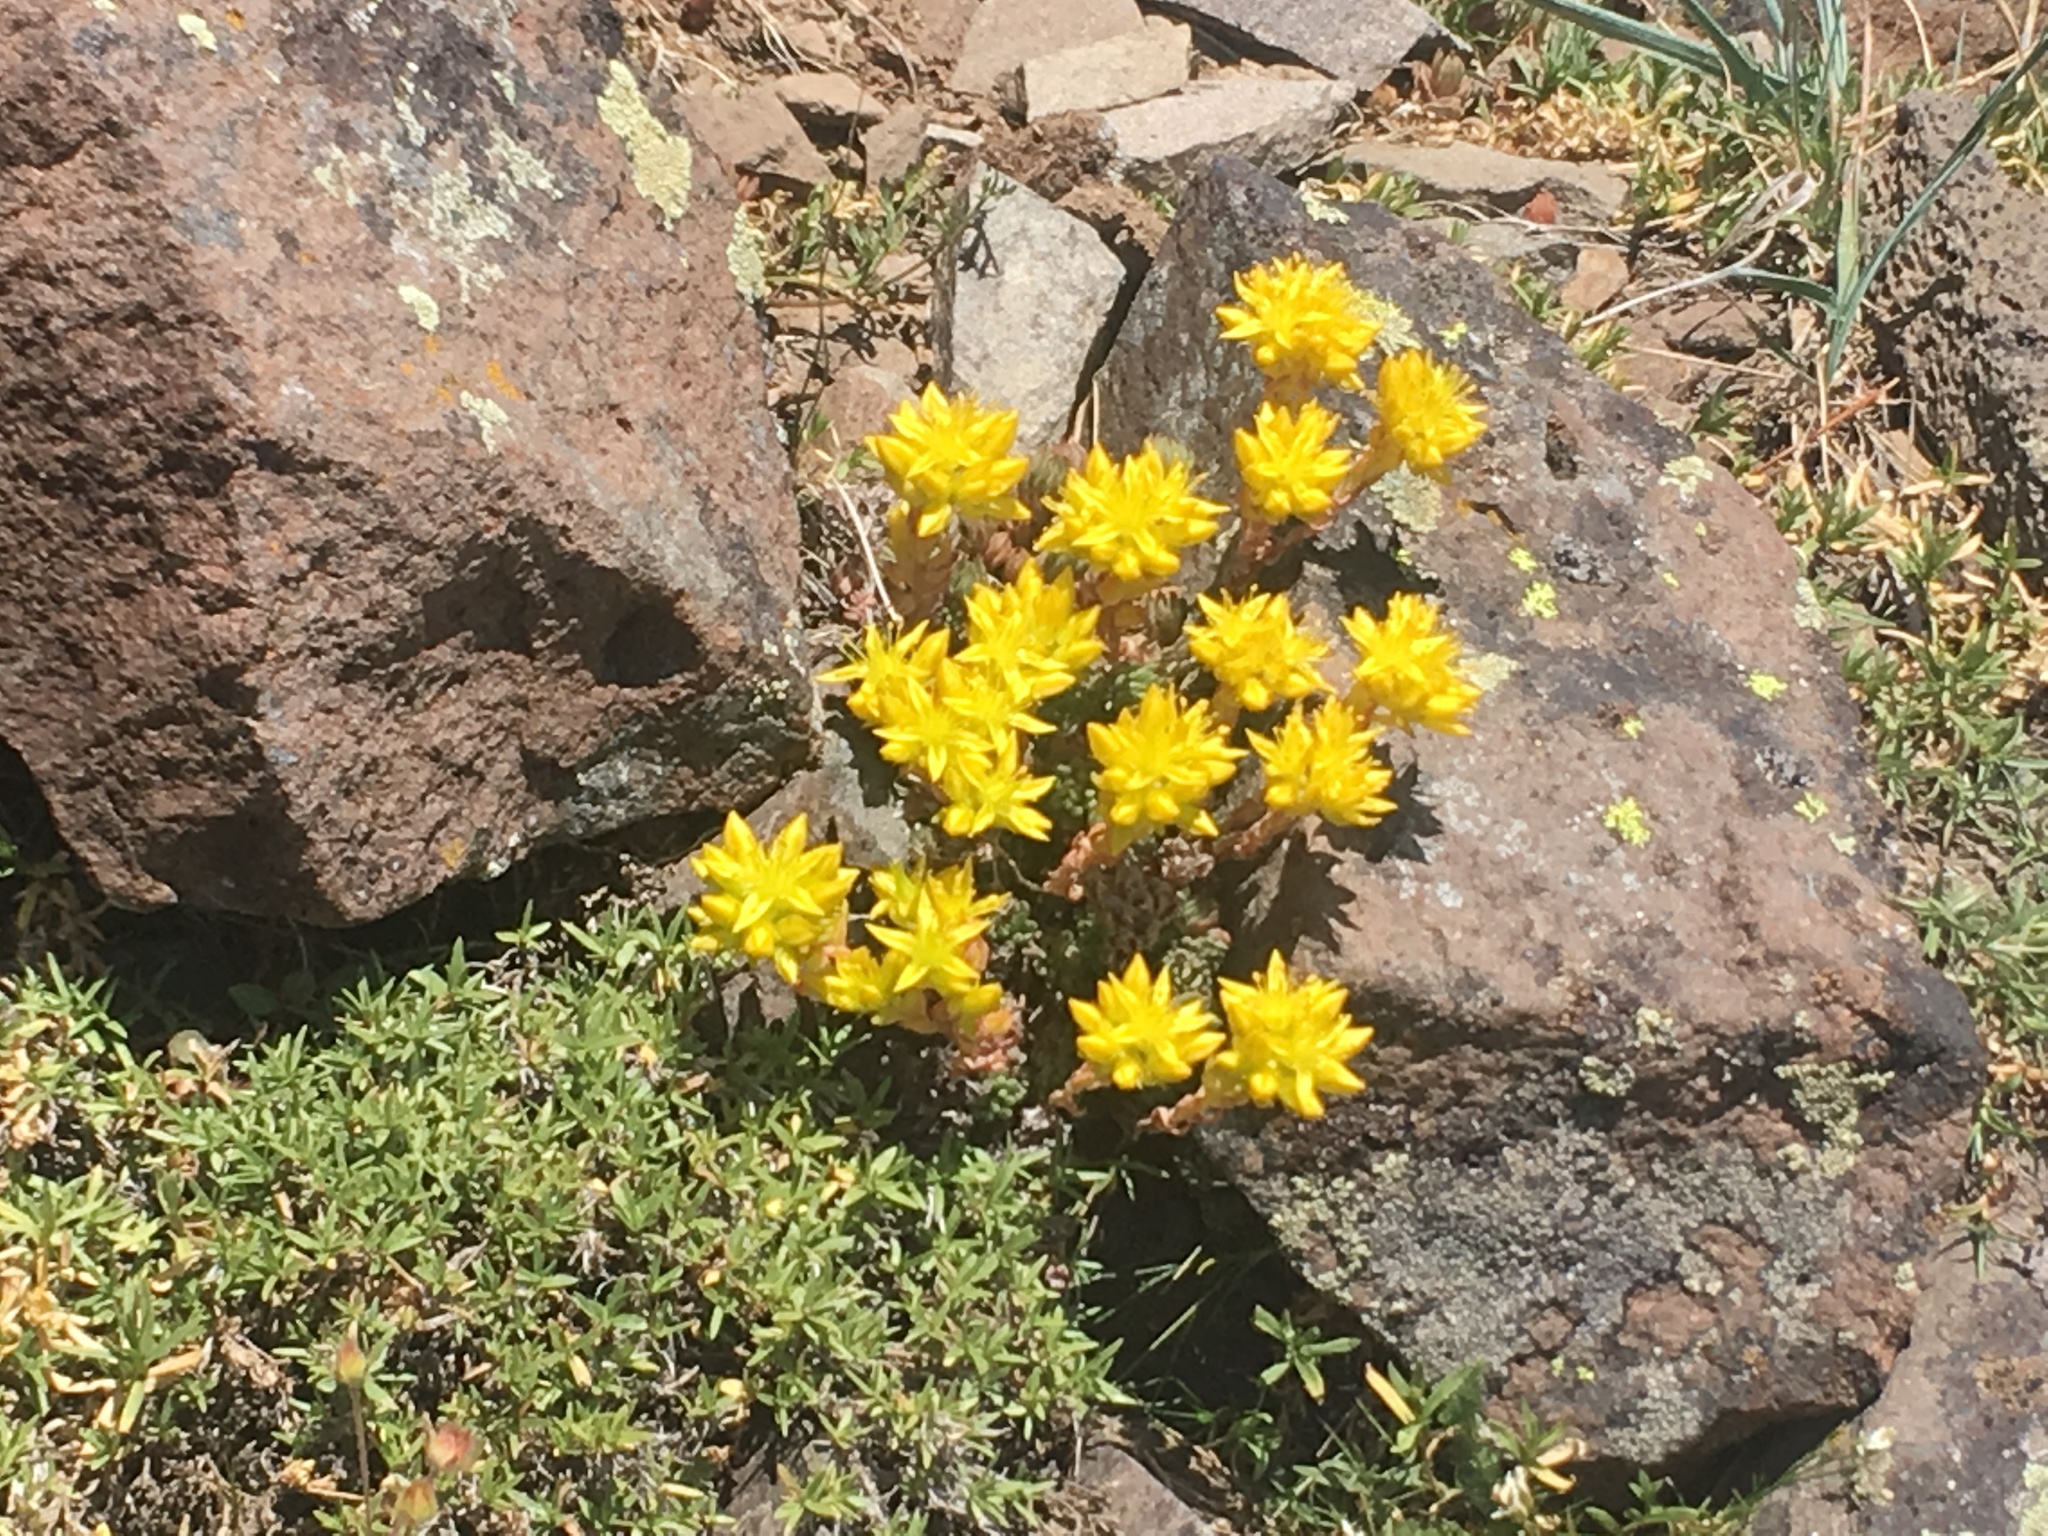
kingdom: Plantae
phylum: Tracheophyta
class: Magnoliopsida
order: Saxifragales
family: Crassulaceae
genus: Sedum
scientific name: Sedum lanceolatum
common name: Common stonecrop
